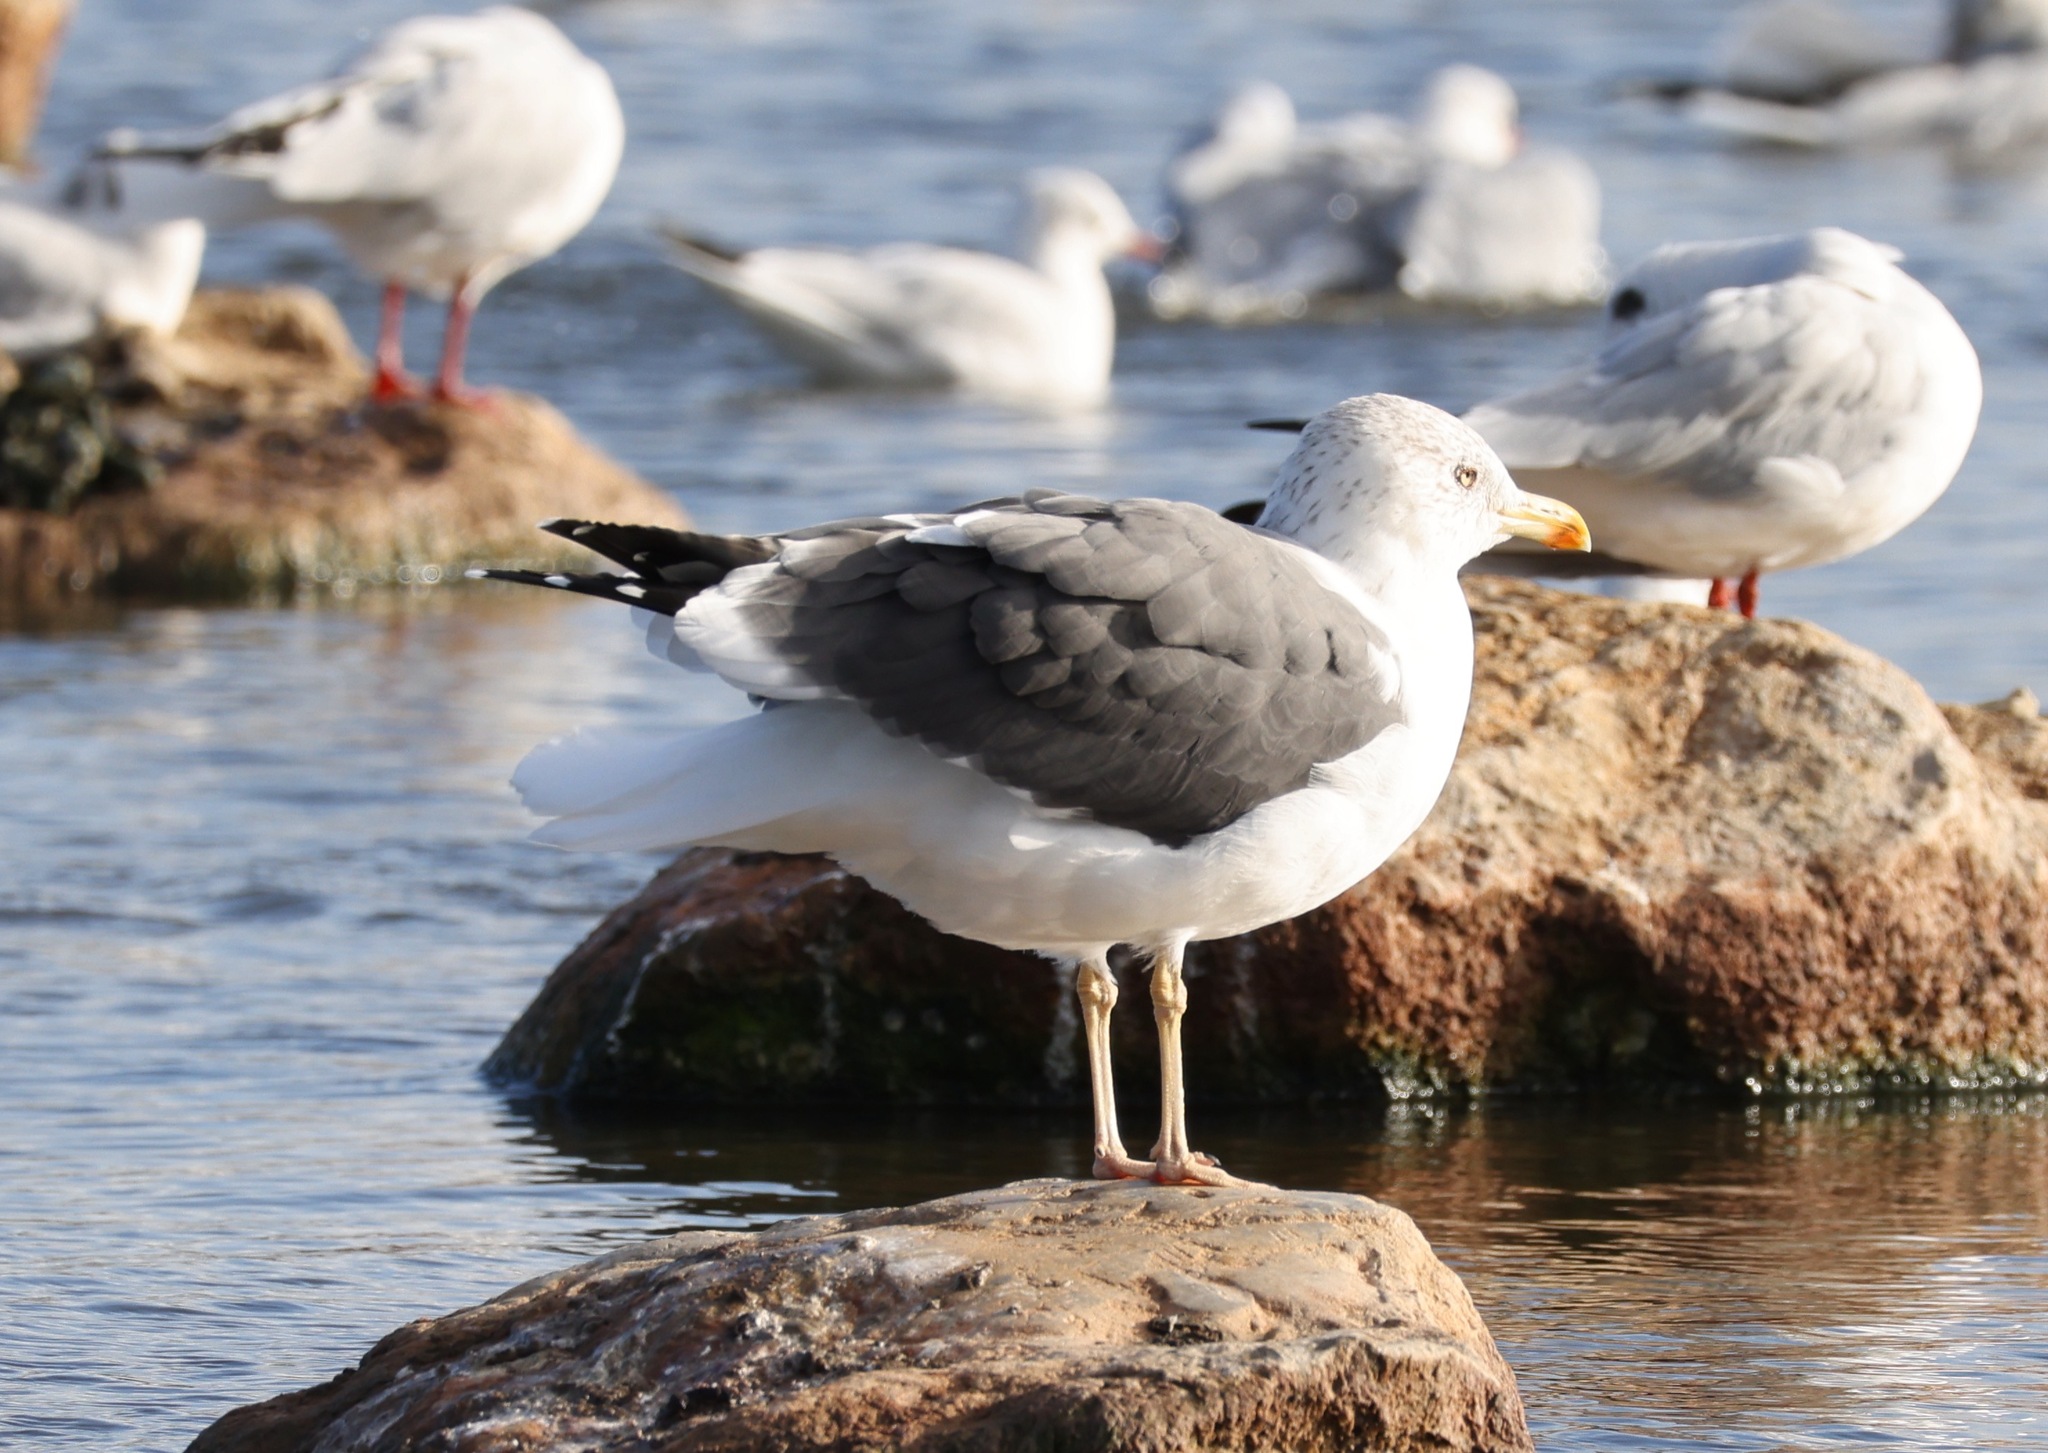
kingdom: Animalia
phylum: Chordata
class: Aves
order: Charadriiformes
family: Laridae
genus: Larus
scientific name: Larus fuscus
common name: Lesser black-backed gull
